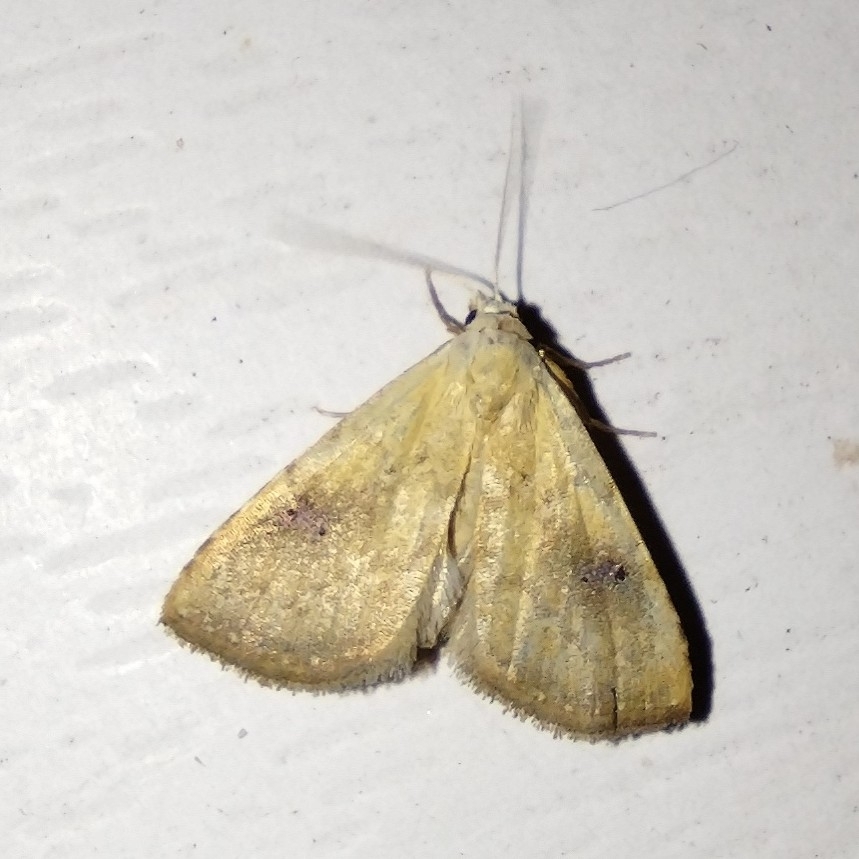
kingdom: Animalia
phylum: Arthropoda
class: Insecta
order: Lepidoptera
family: Erebidae
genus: Rivula
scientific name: Rivula sericealis
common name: Straw dot
